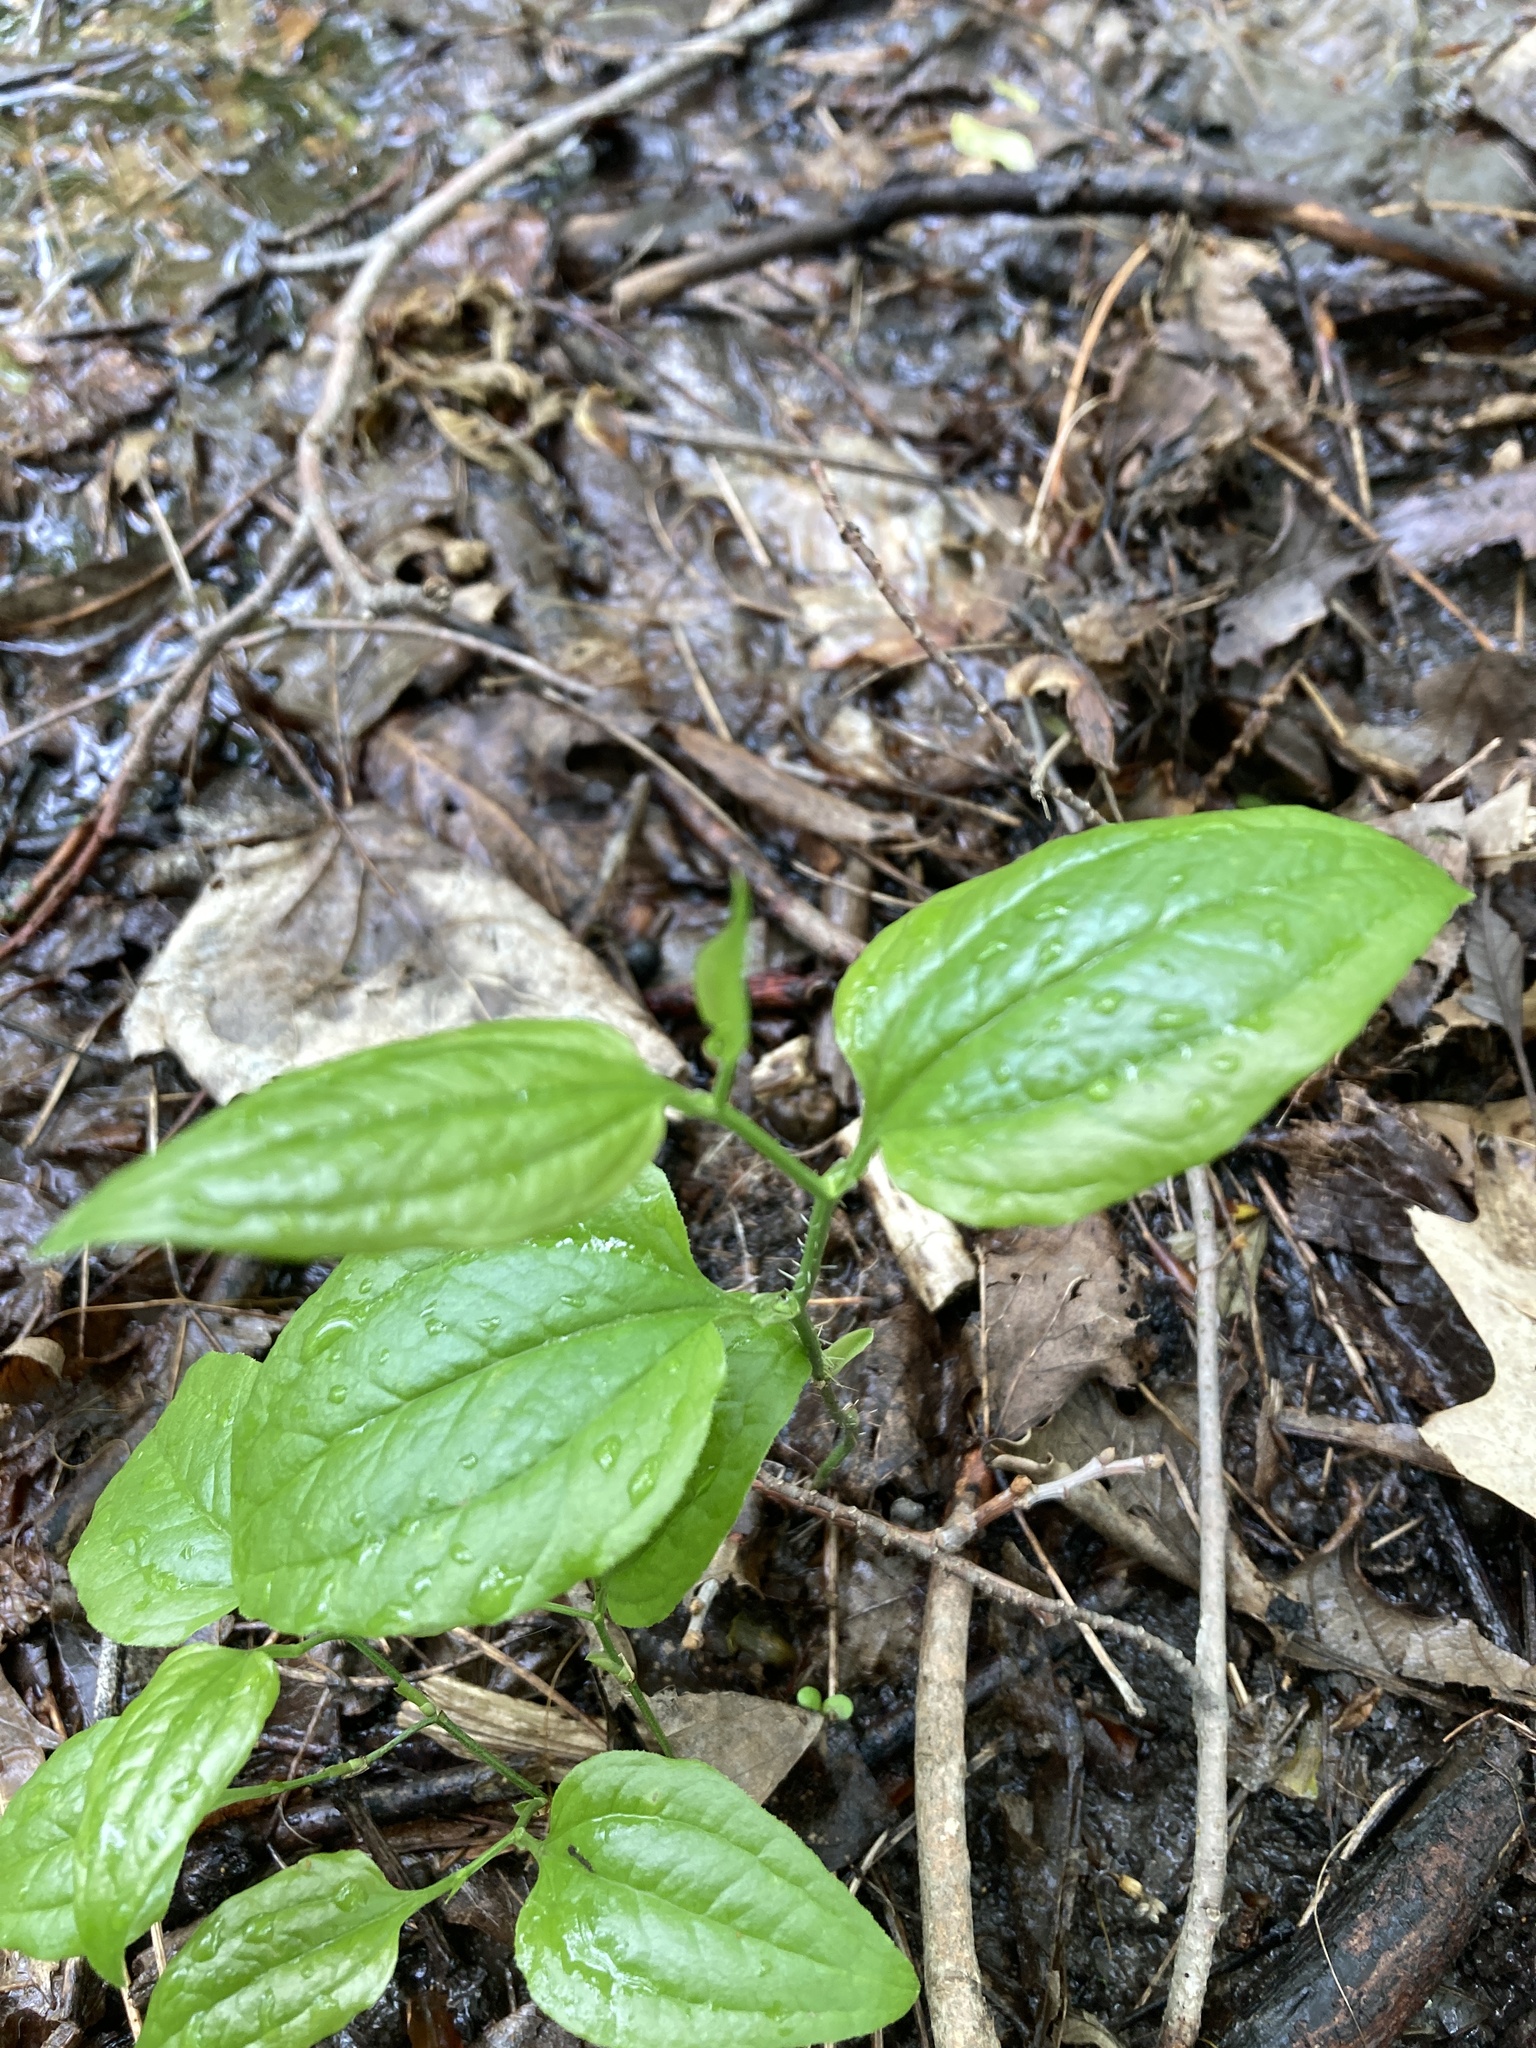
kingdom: Plantae
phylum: Tracheophyta
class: Liliopsida
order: Liliales
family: Smilacaceae
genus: Smilax
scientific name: Smilax tamnoides
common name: Hellfetter
